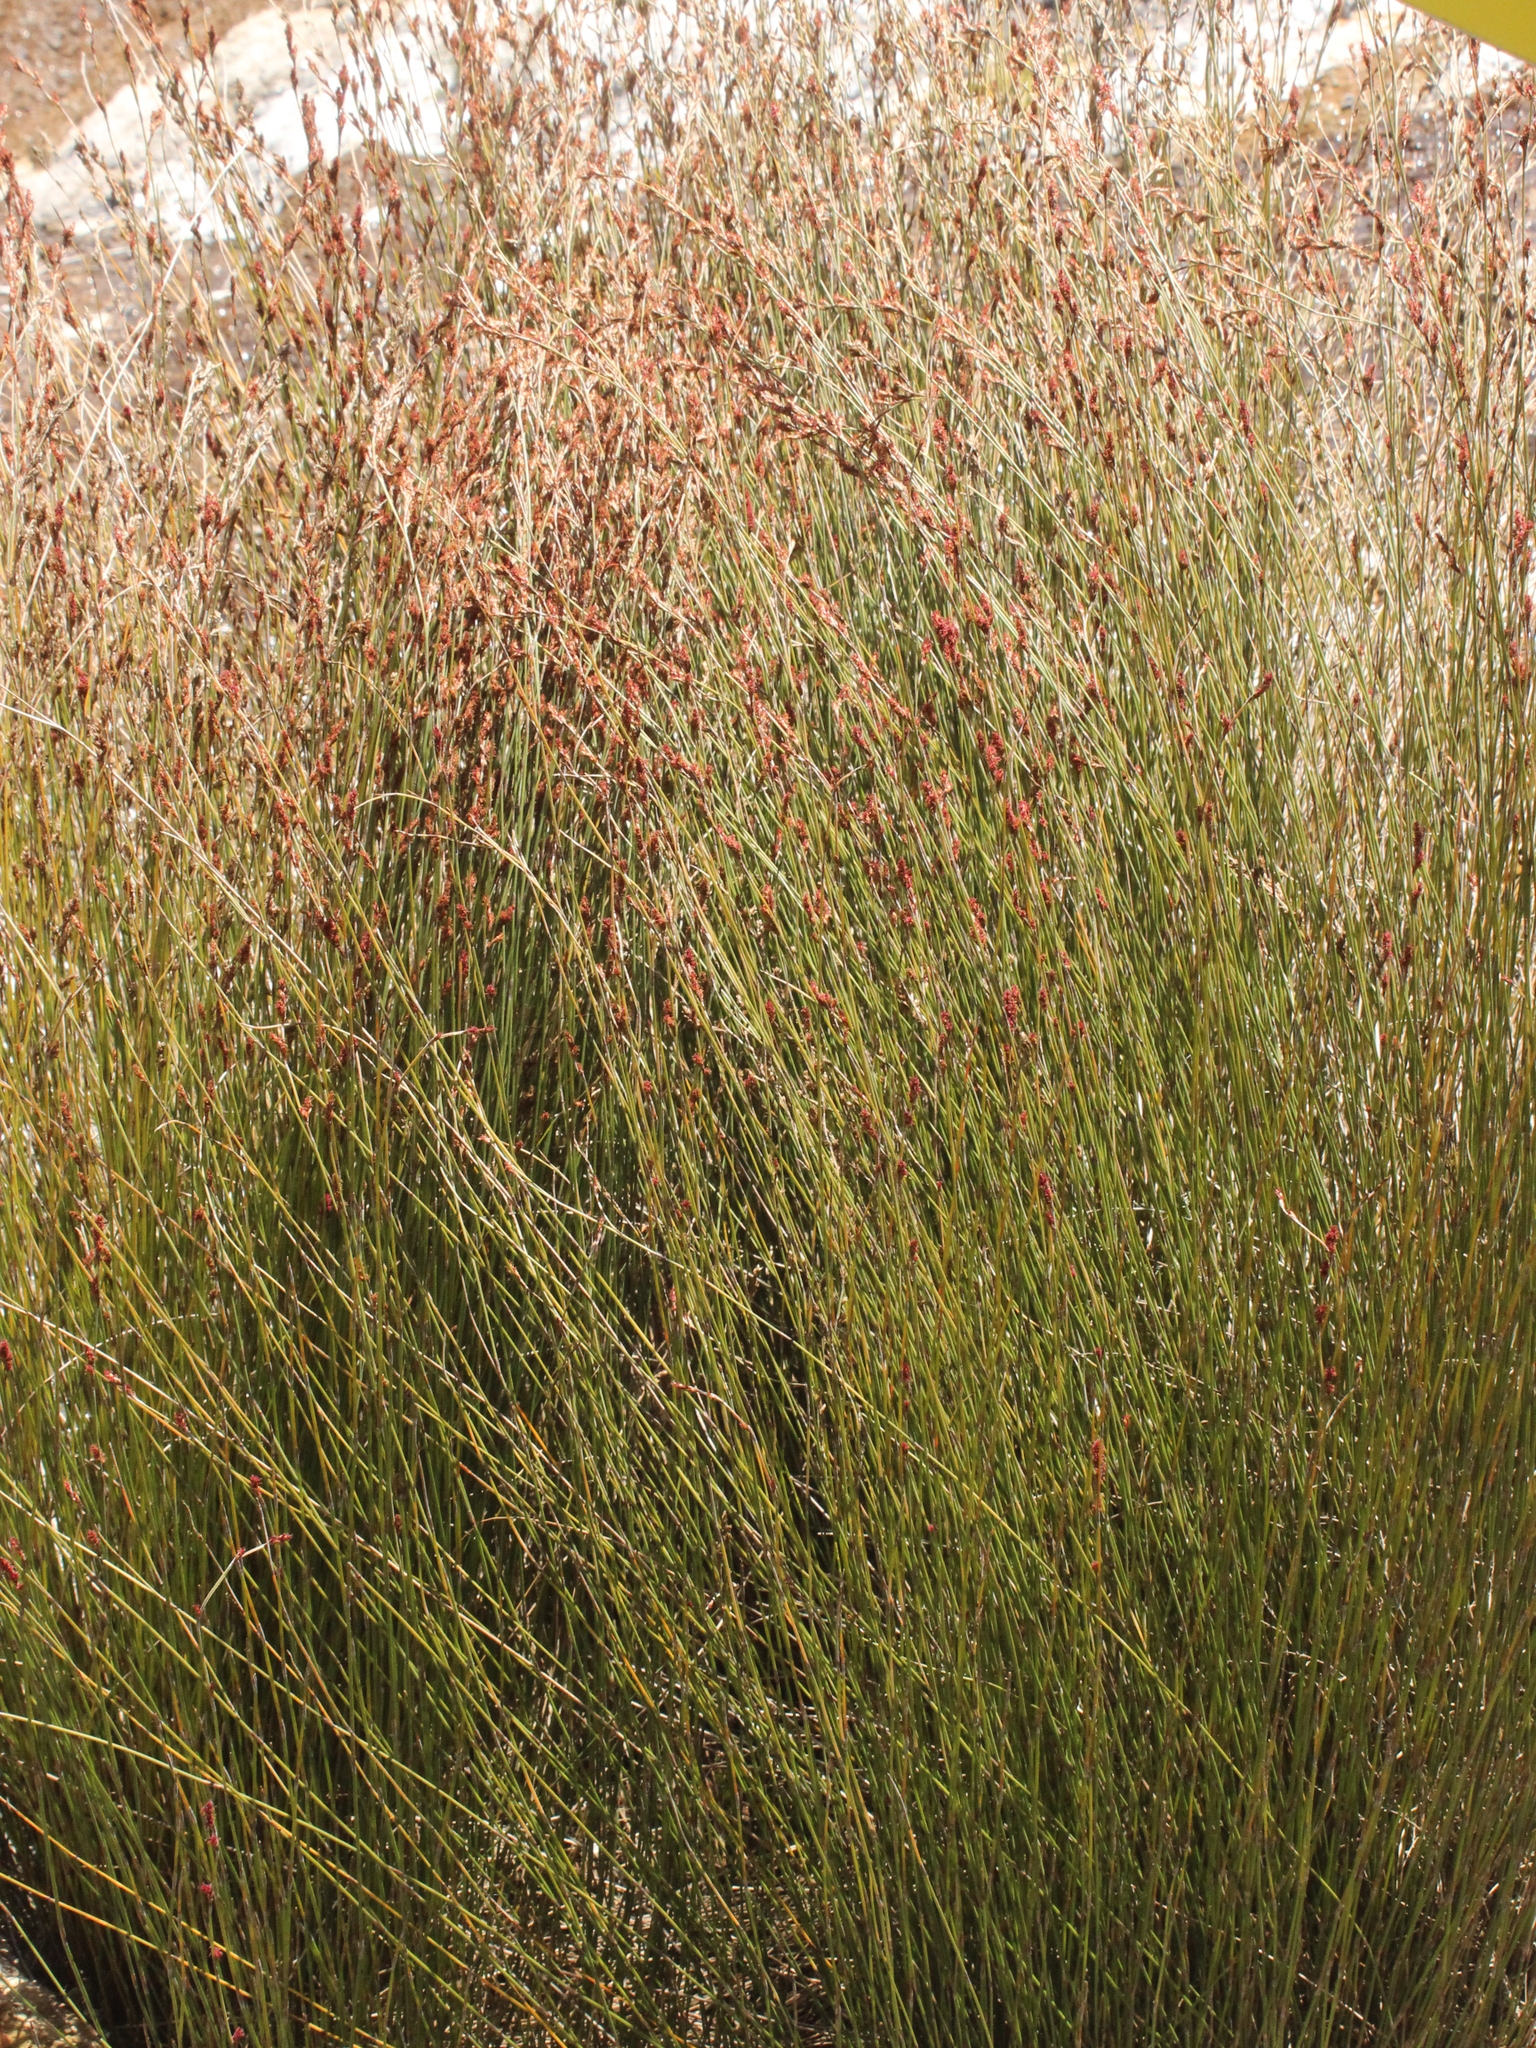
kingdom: Plantae
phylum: Tracheophyta
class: Liliopsida
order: Poales
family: Restionaceae
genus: Apodasmia
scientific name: Apodasmia similis
